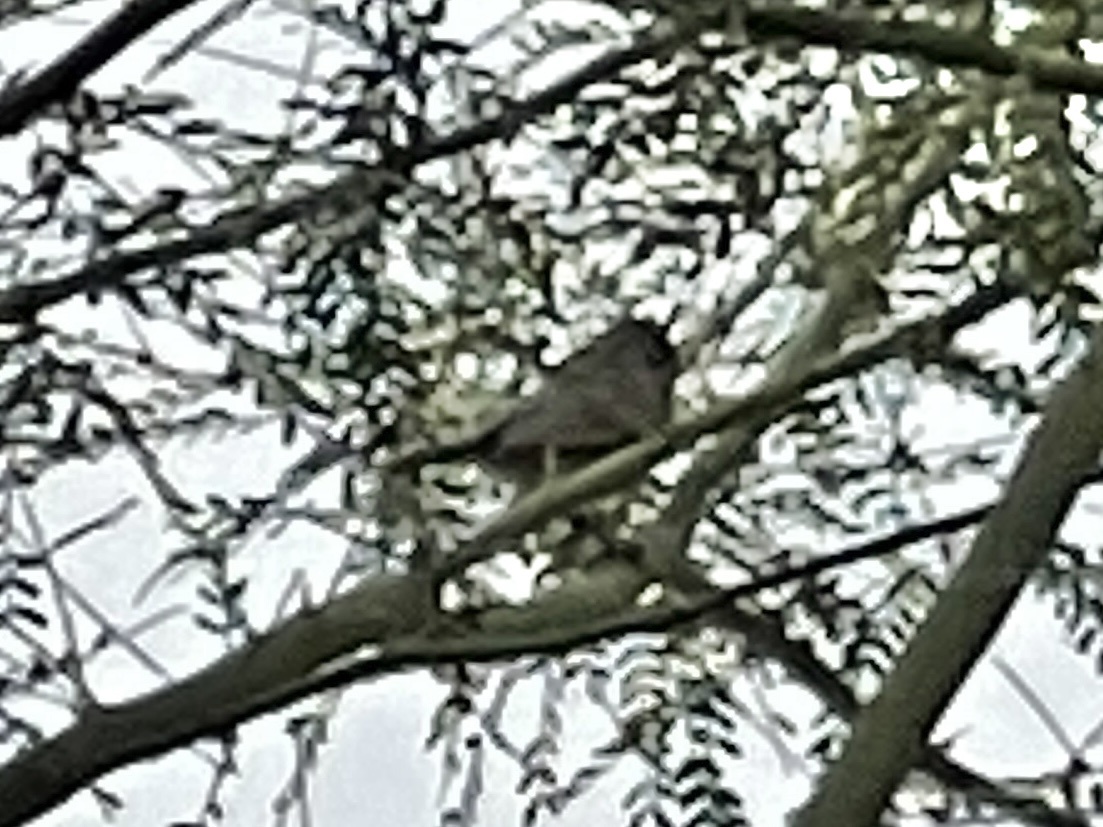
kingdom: Animalia
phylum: Chordata
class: Aves
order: Passeriformes
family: Remizidae
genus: Auriparus
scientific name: Auriparus flaviceps
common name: Verdin
